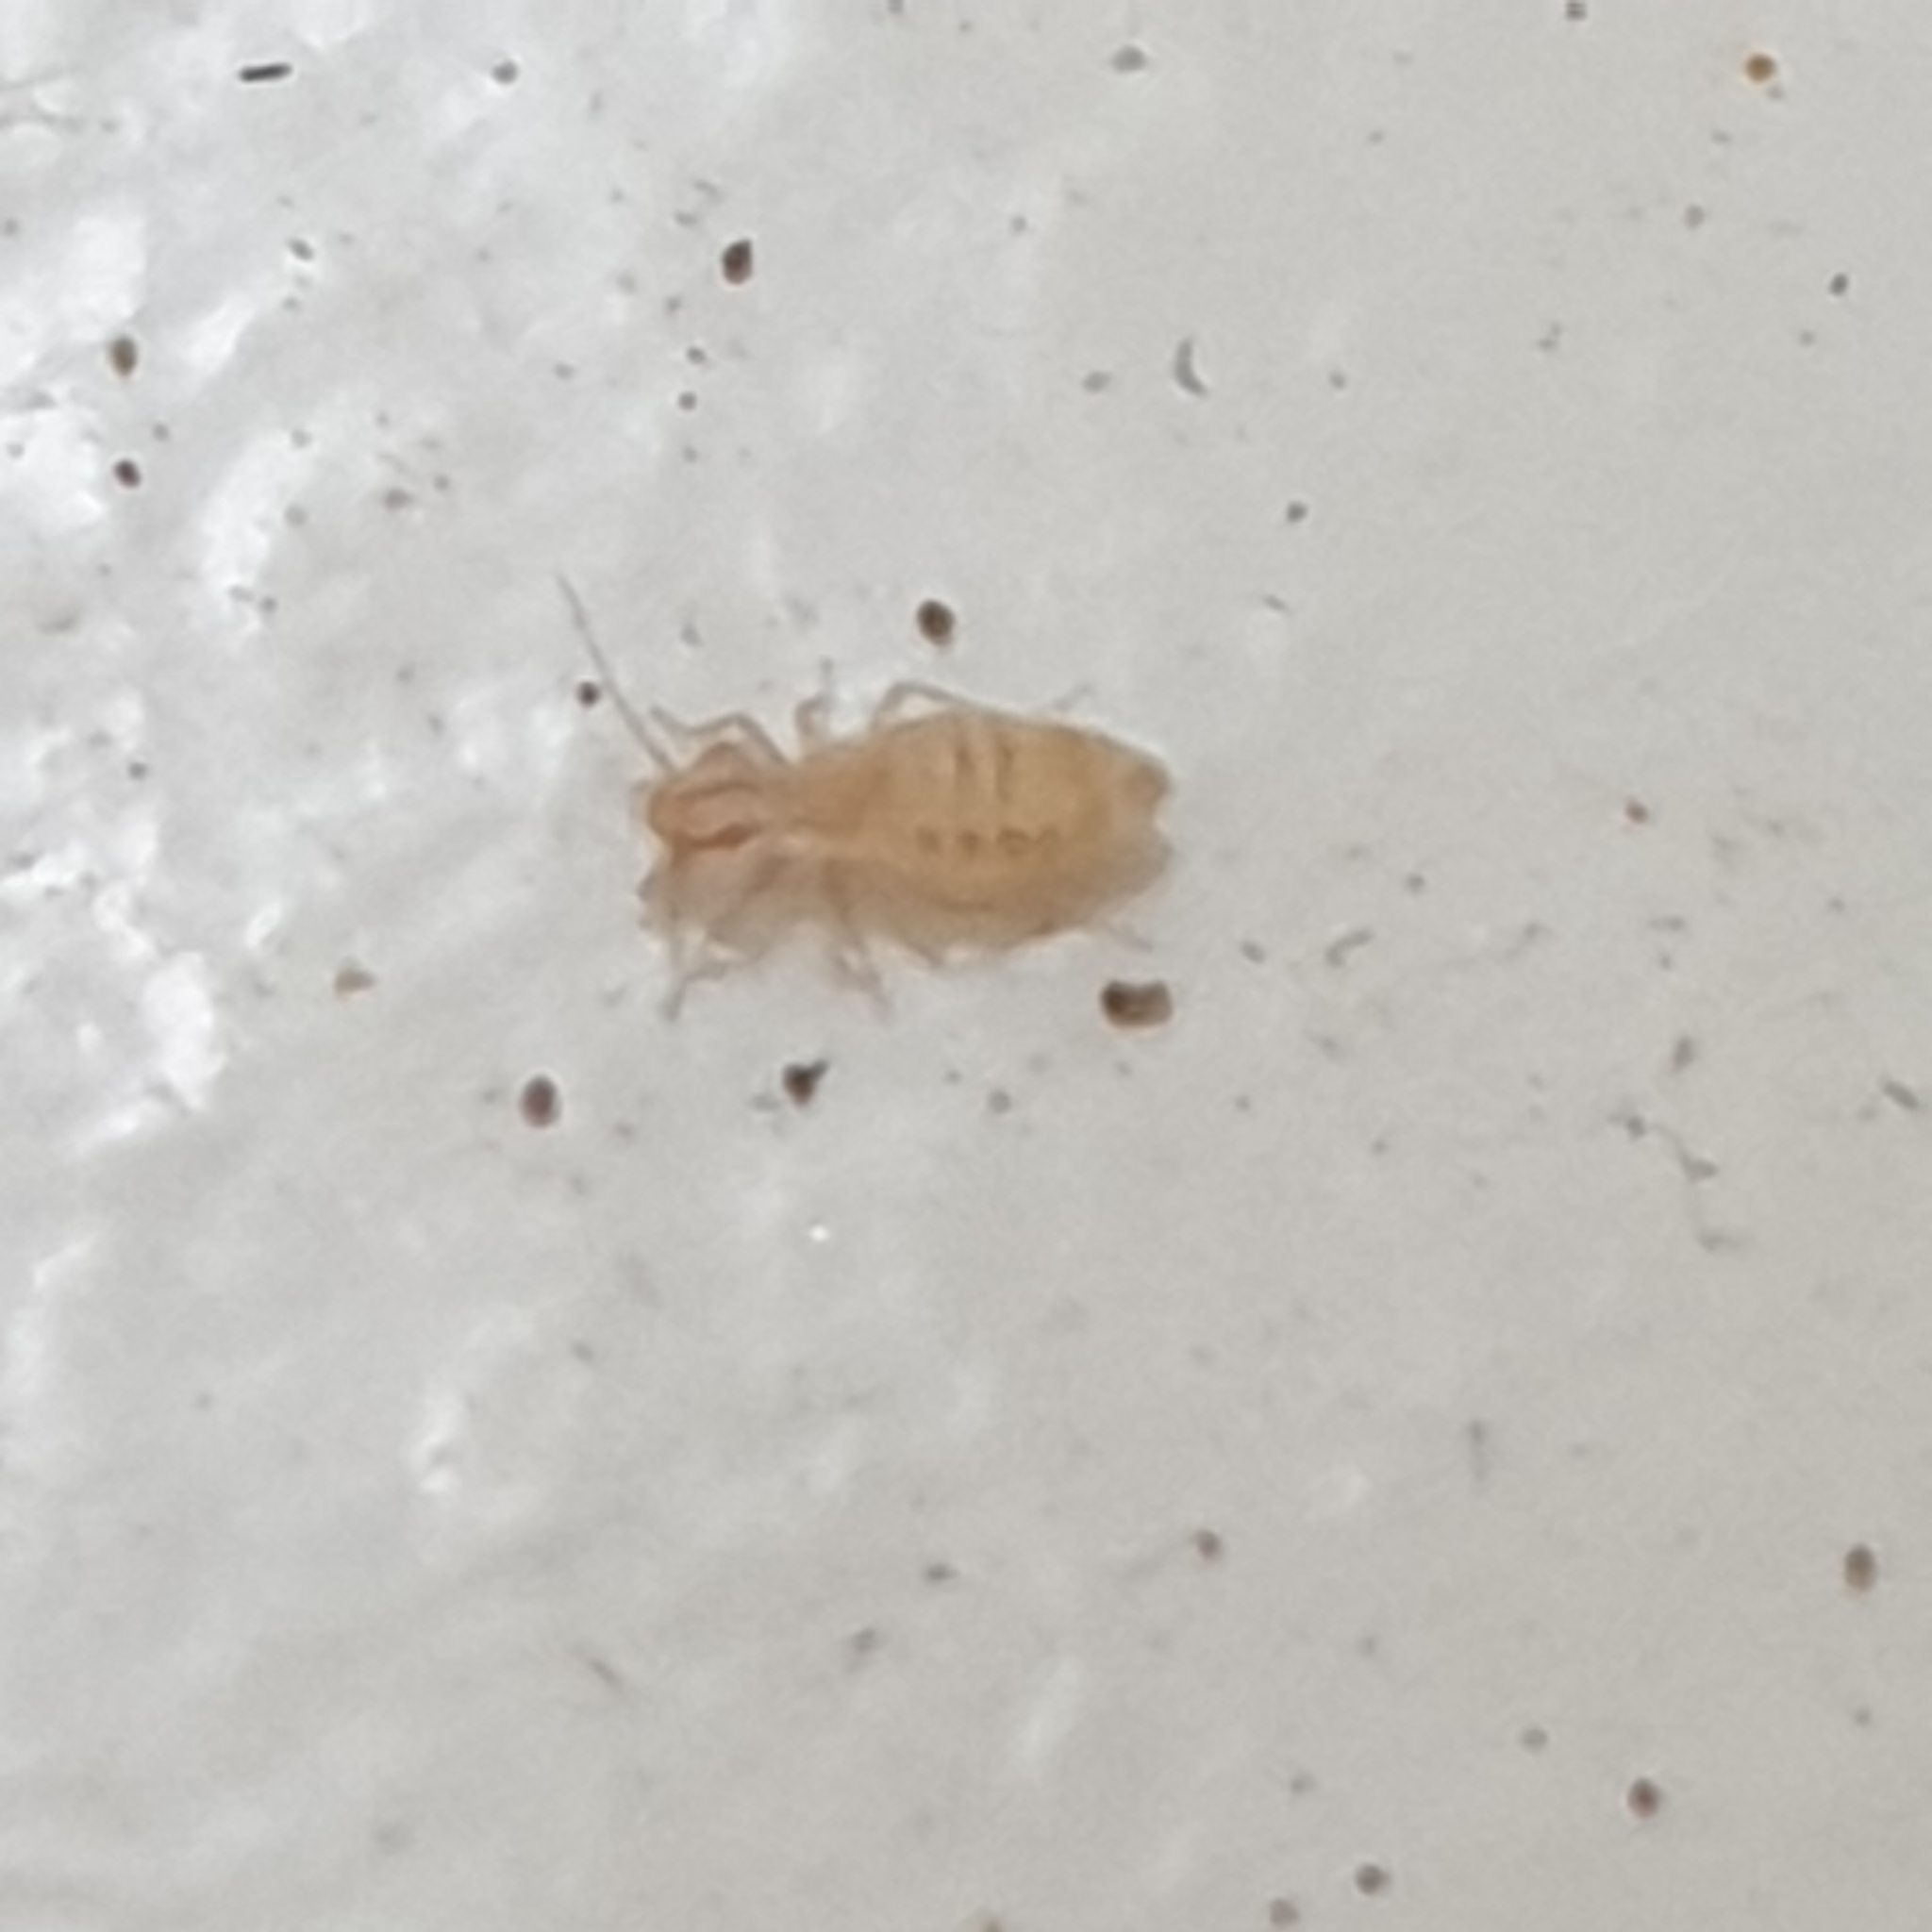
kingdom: Animalia
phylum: Arthropoda
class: Insecta
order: Psocodea
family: Trogiidae
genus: Trogium
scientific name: Trogium pulsatorium
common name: Granary book louse
